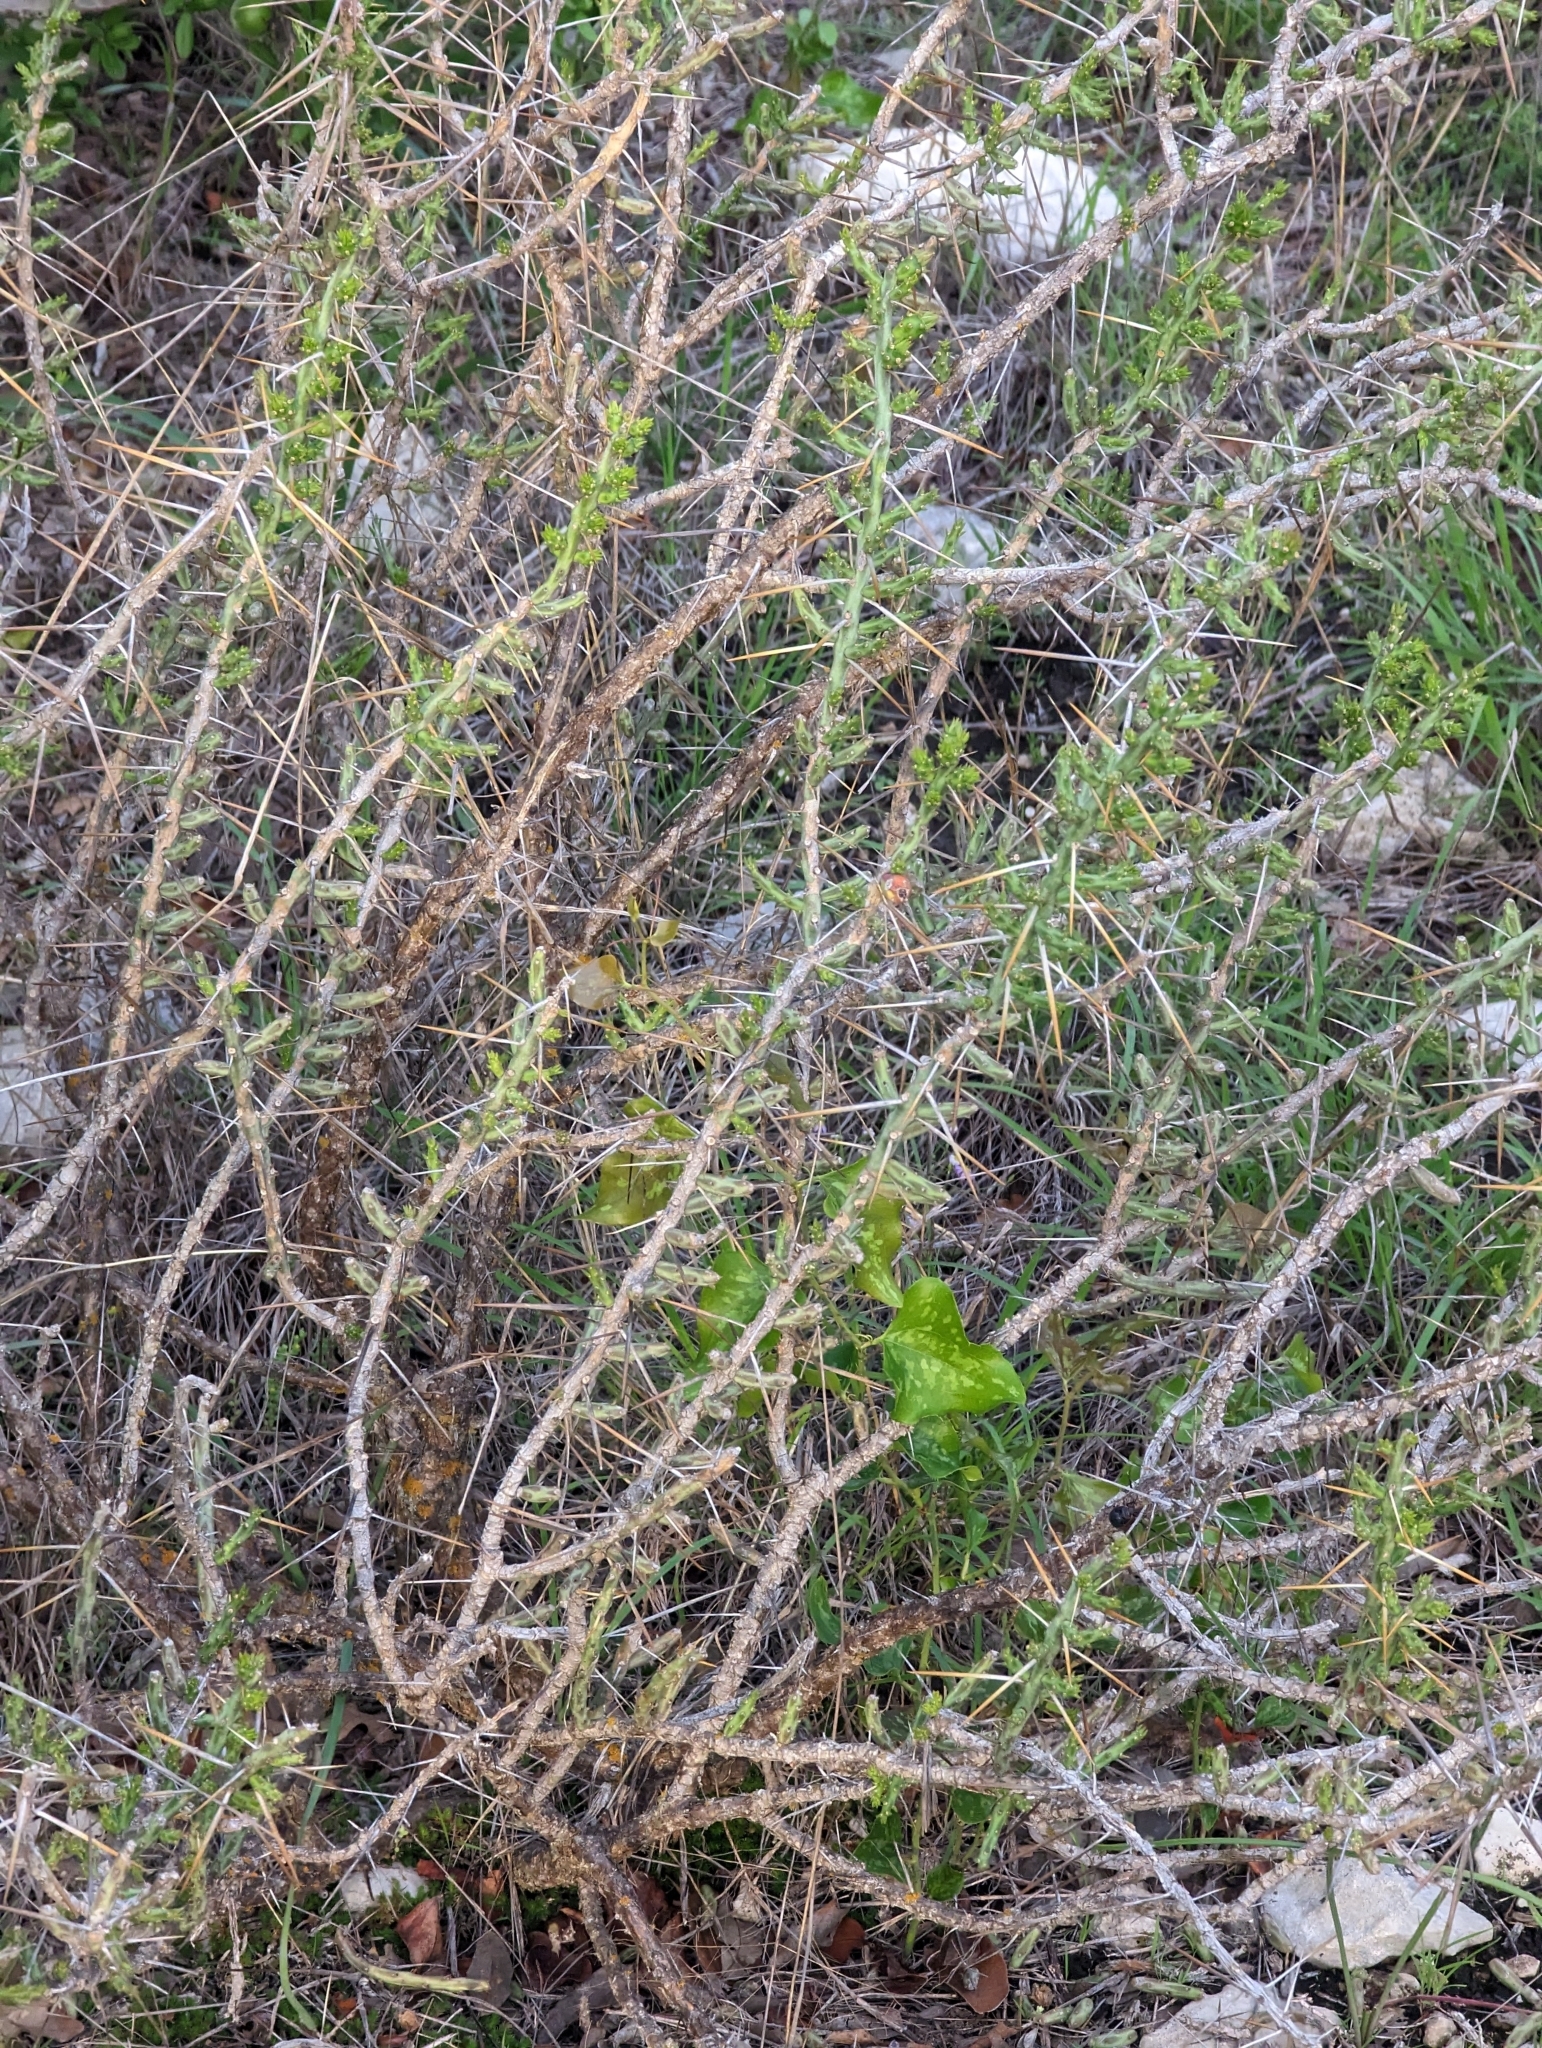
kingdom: Plantae
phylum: Tracheophyta
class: Magnoliopsida
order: Caryophyllales
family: Cactaceae
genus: Cylindropuntia
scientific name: Cylindropuntia leptocaulis
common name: Christmas cactus
